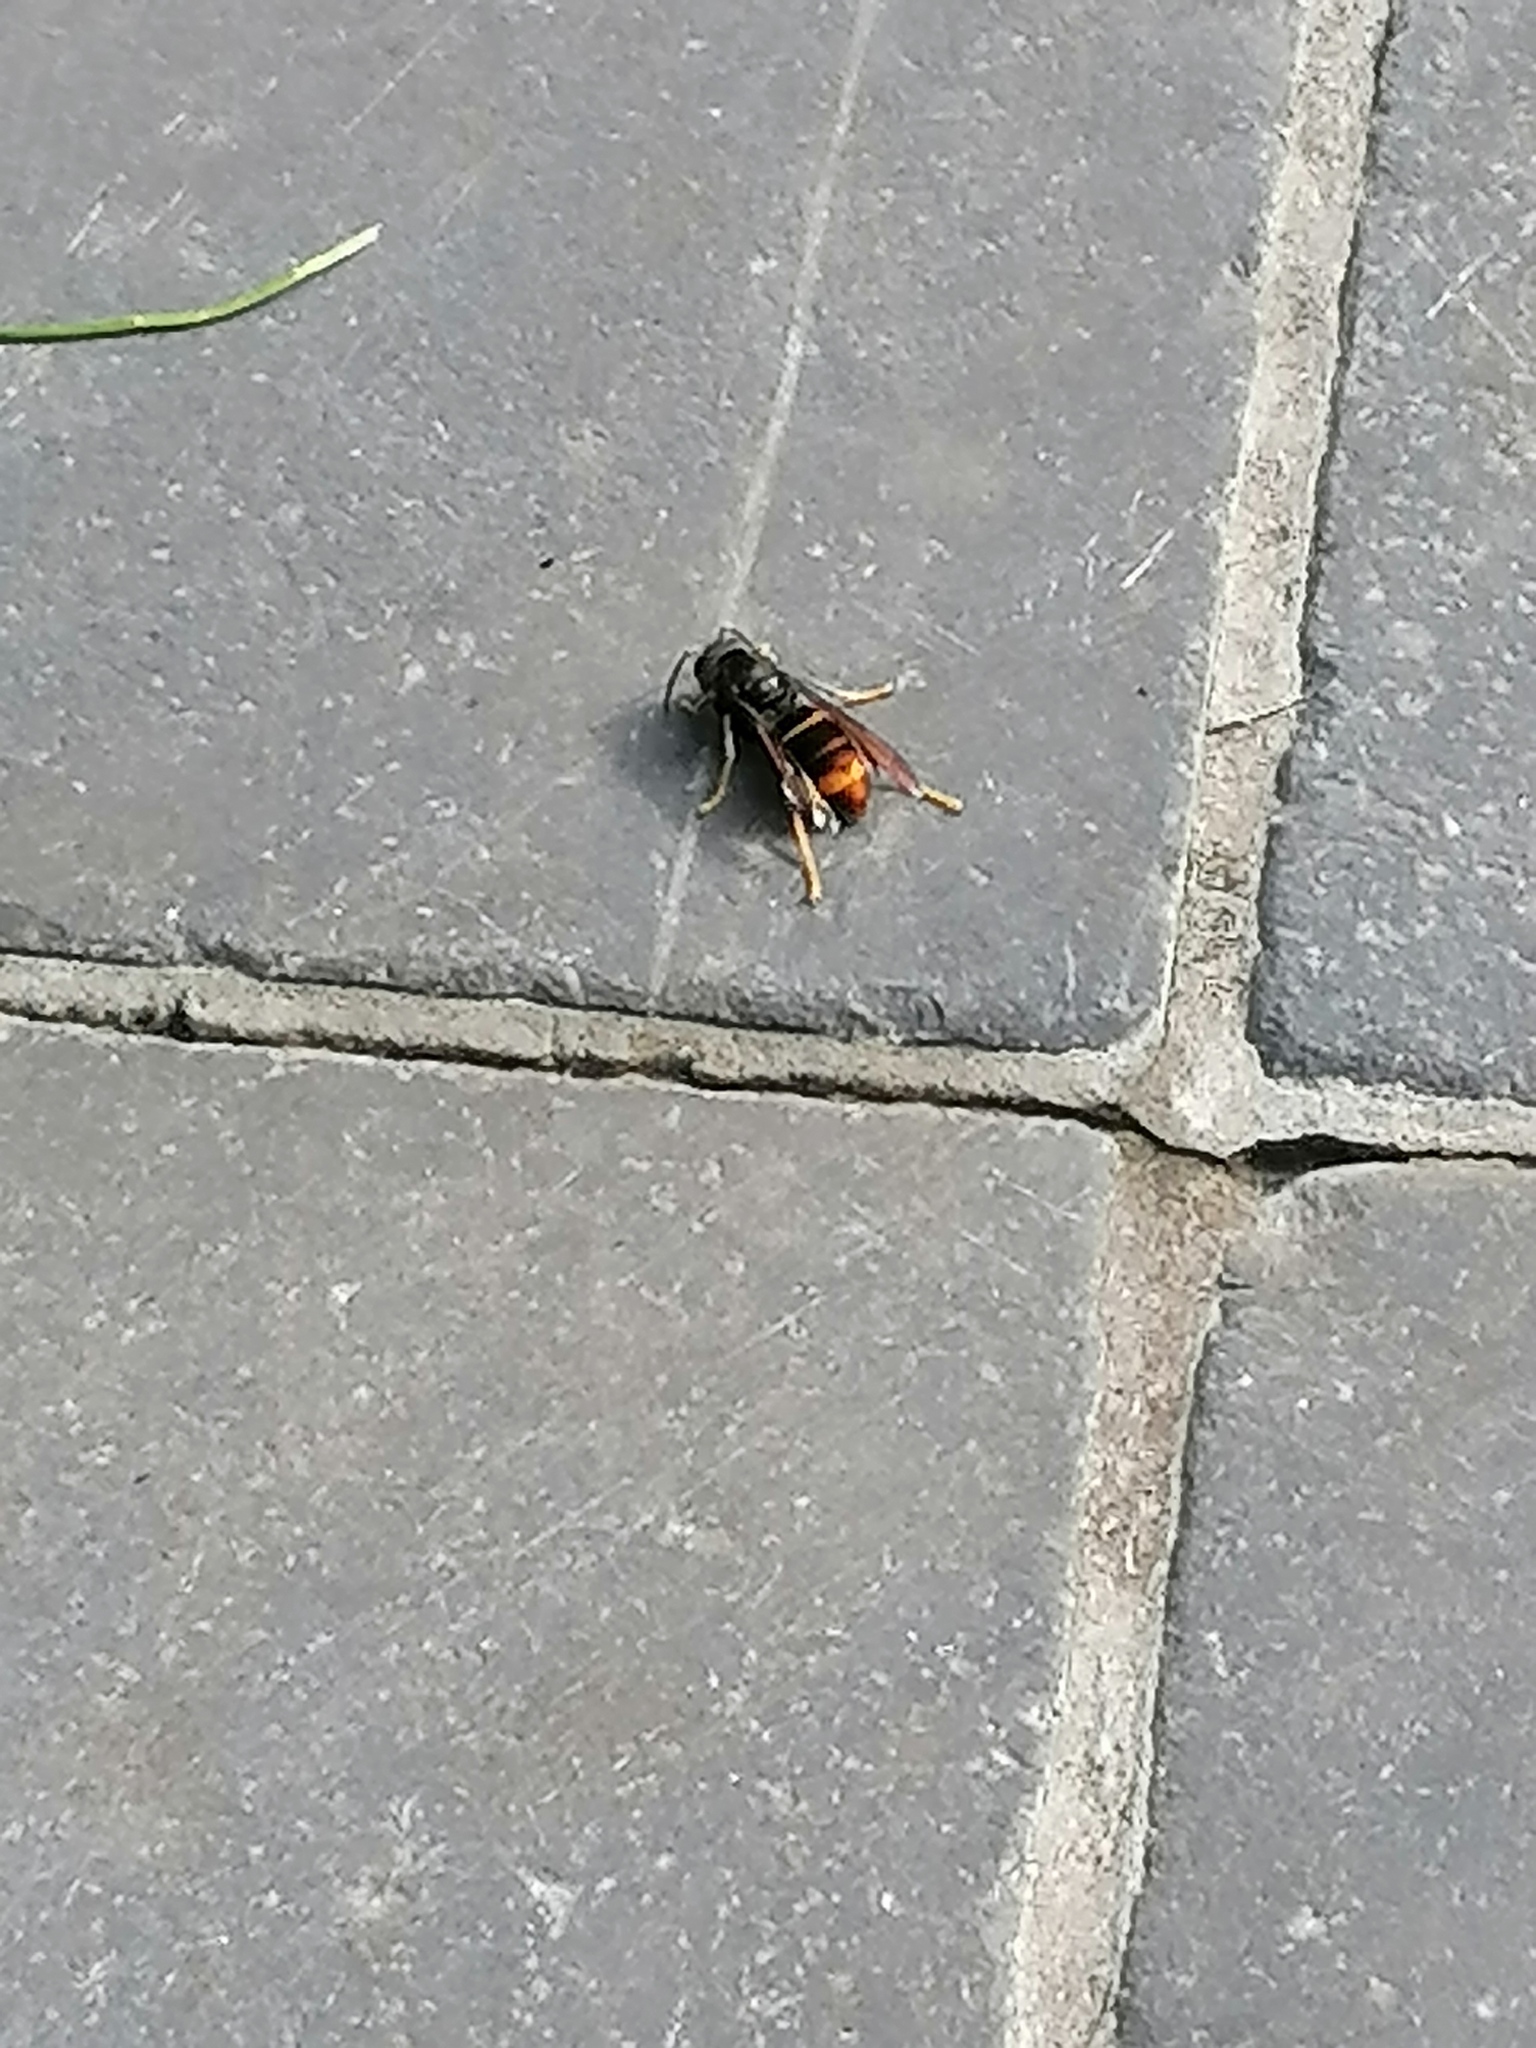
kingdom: Animalia
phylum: Arthropoda
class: Insecta
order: Hymenoptera
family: Vespidae
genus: Vespa
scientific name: Vespa velutina
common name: Asian hornet
